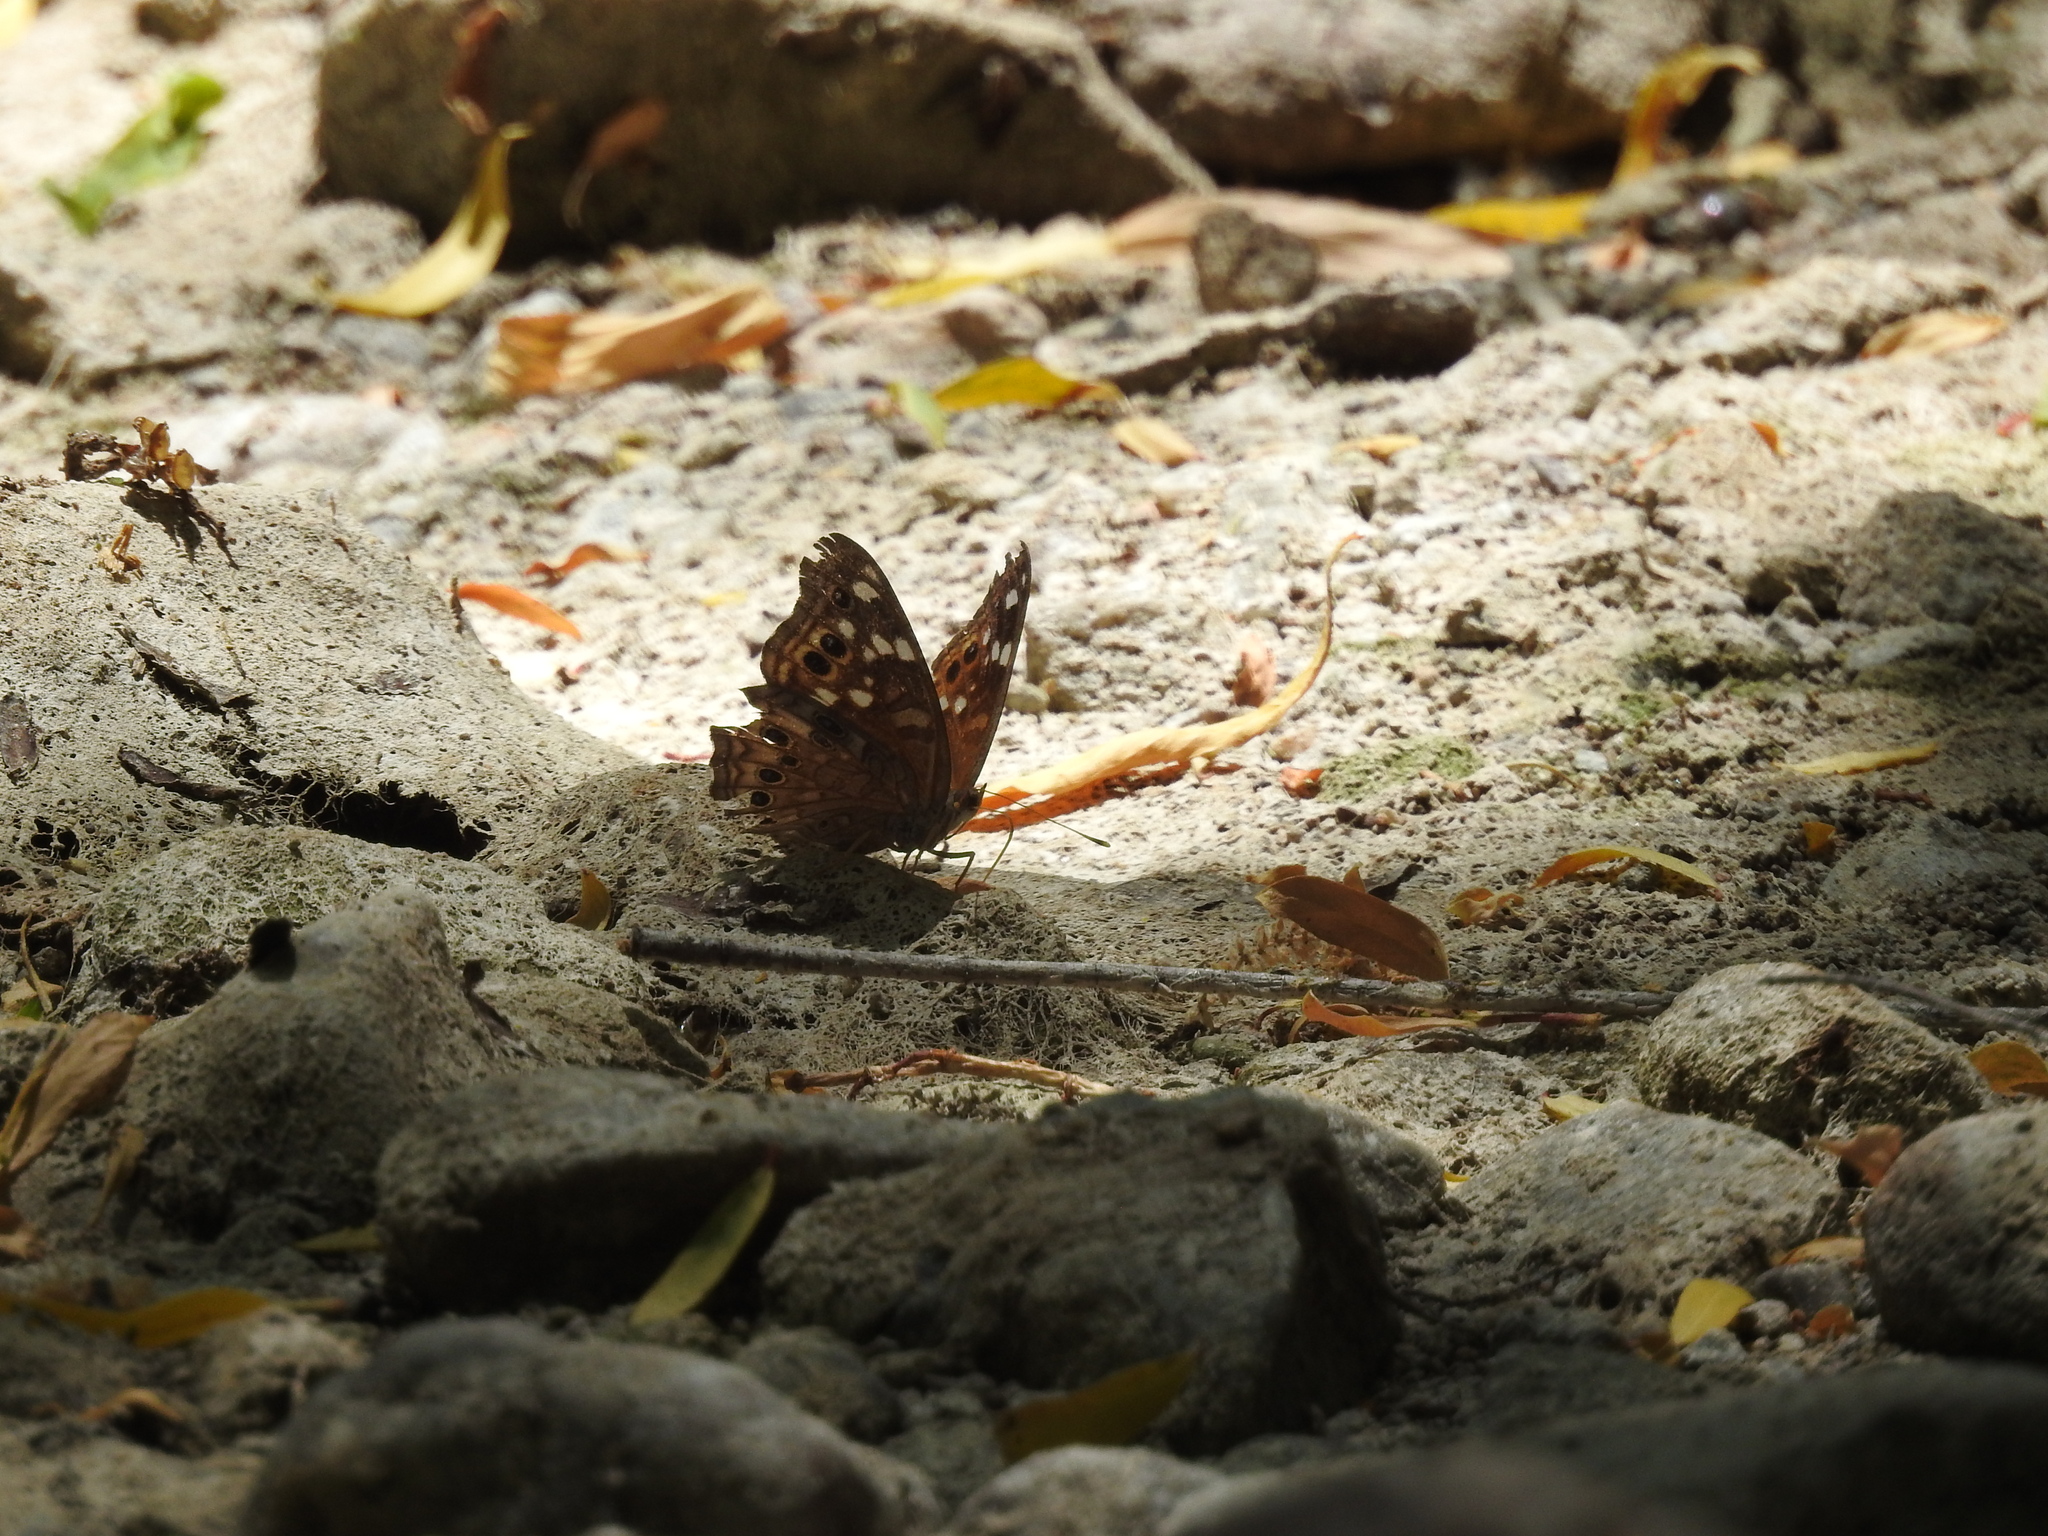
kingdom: Animalia
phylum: Arthropoda
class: Insecta
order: Lepidoptera
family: Nymphalidae
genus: Asterocampa
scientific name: Asterocampa leilia
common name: Empress leilia
